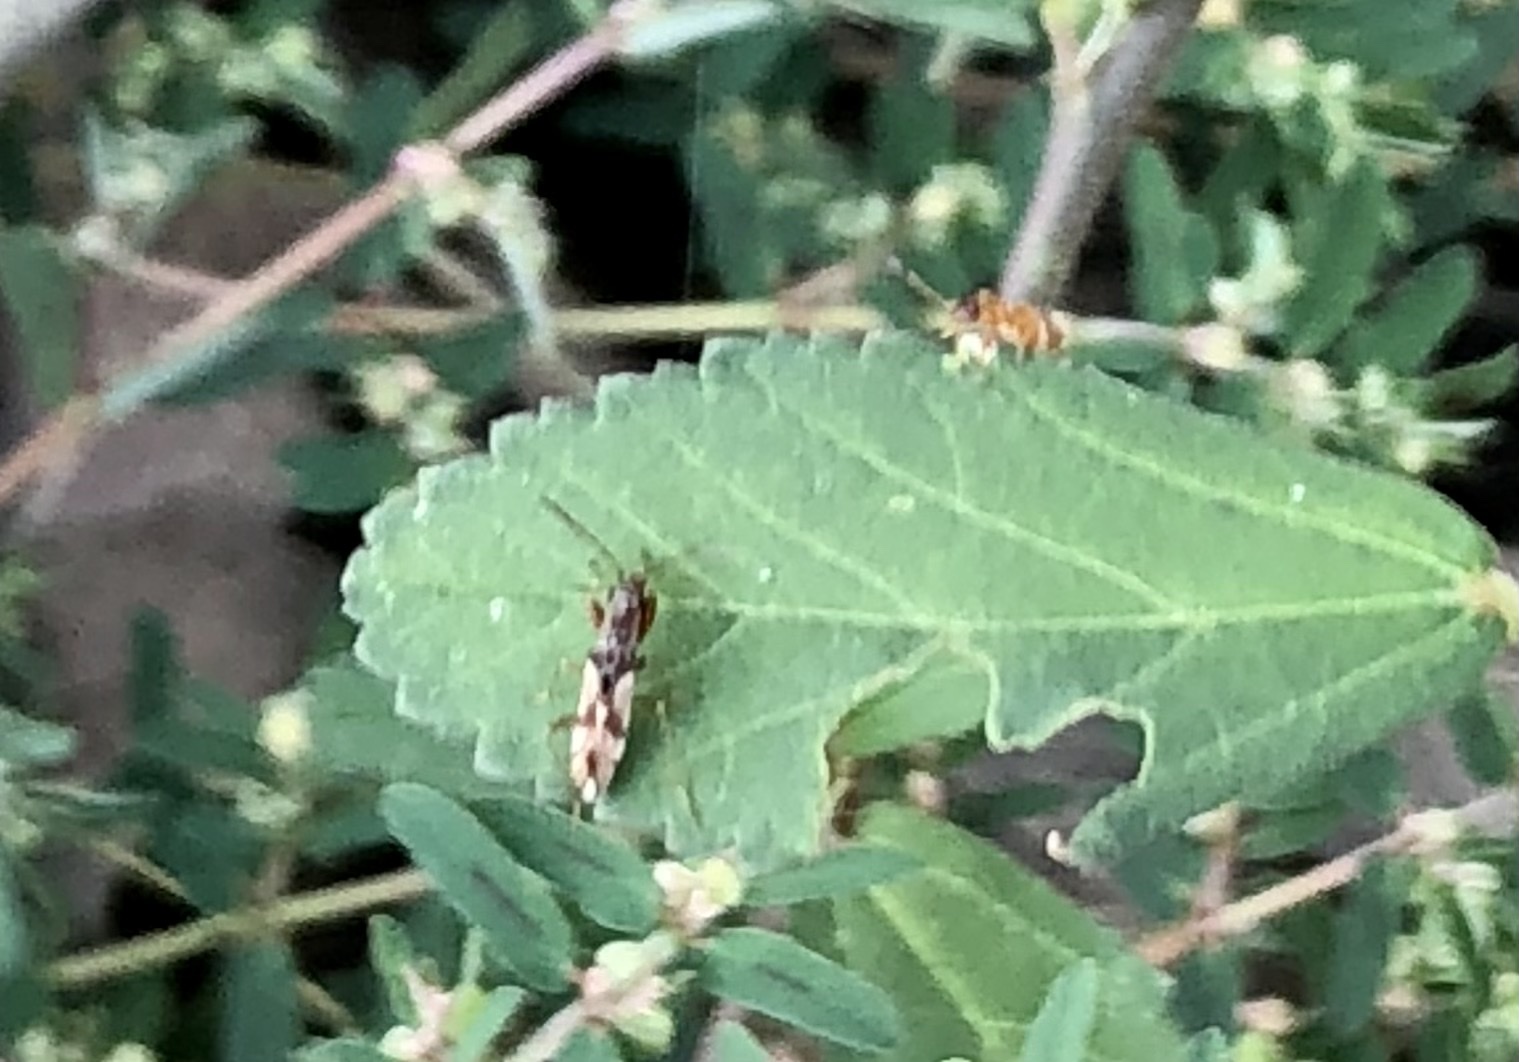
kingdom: Animalia
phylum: Arthropoda
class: Insecta
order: Hemiptera
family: Rhyparochromidae
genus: Neopamera
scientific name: Neopamera bilobata
